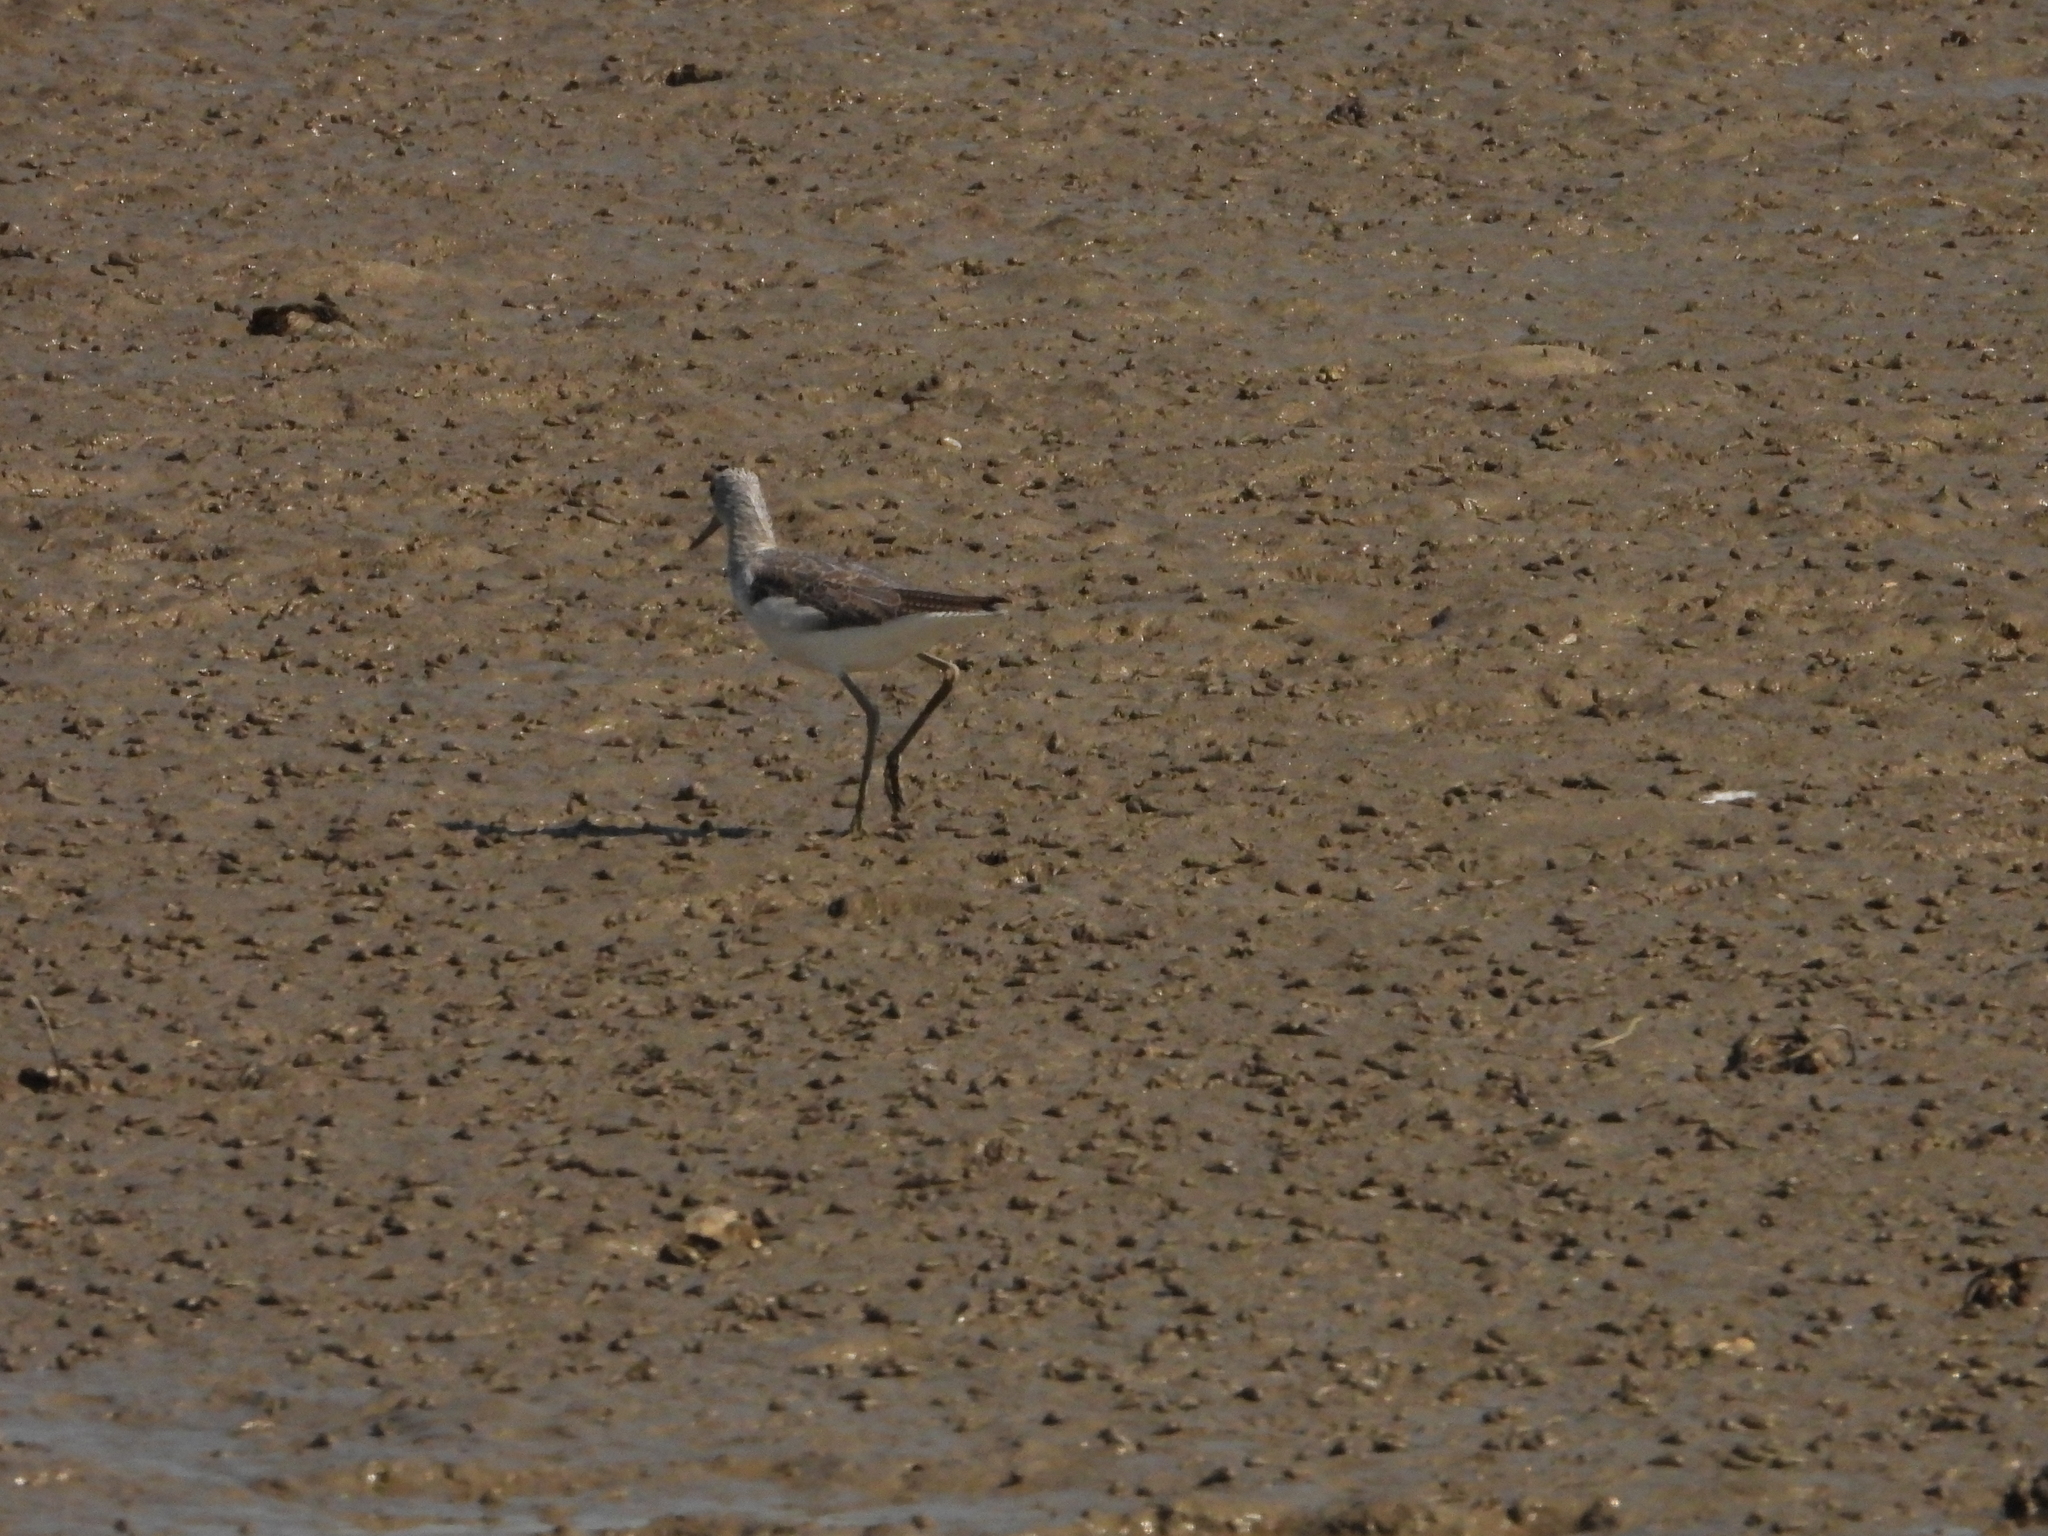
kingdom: Animalia
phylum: Chordata
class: Aves
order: Charadriiformes
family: Scolopacidae
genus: Tringa
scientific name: Tringa nebularia
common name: Common greenshank
